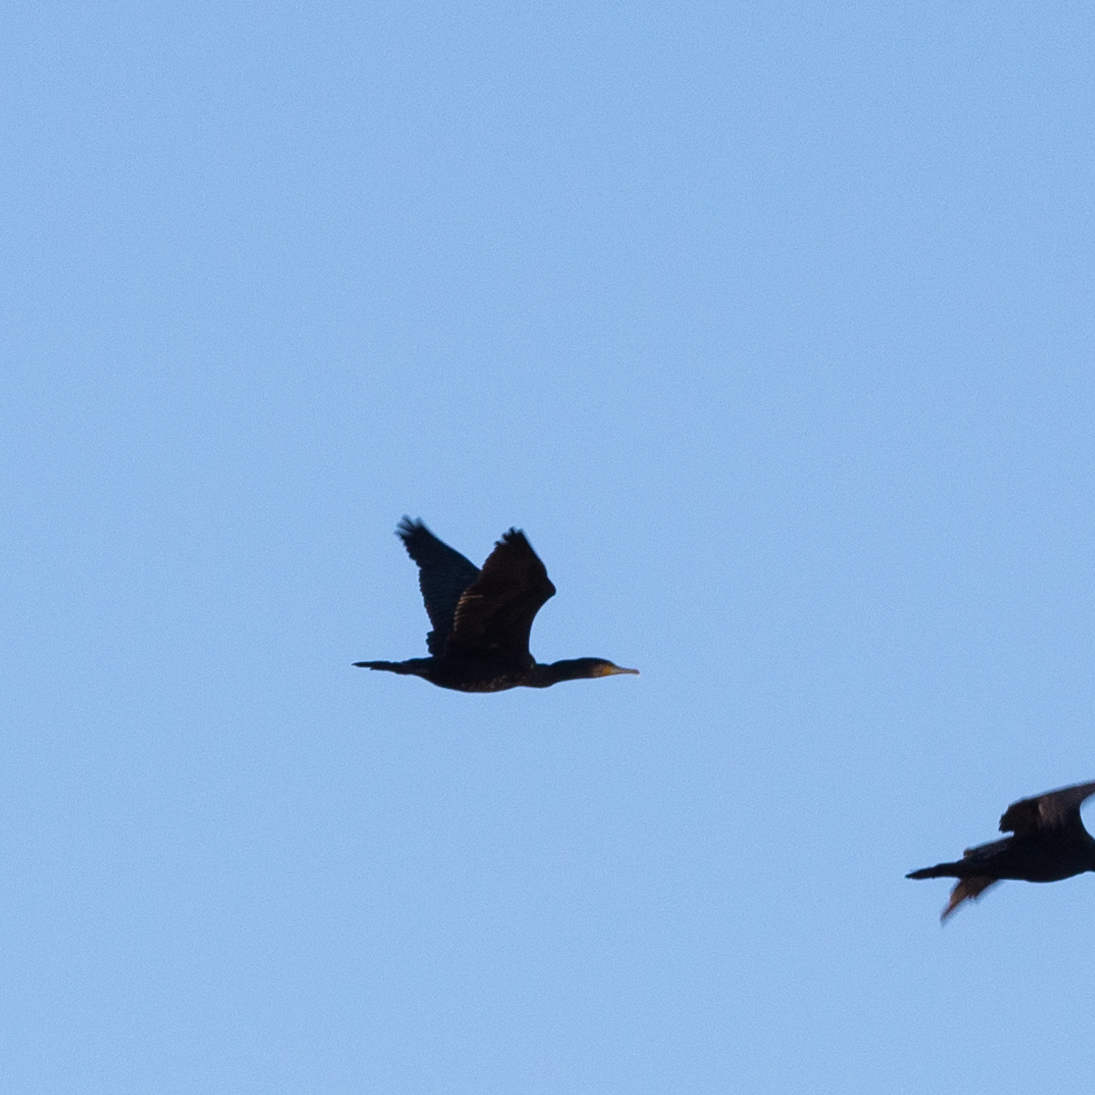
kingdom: Animalia
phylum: Chordata
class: Aves
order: Suliformes
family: Phalacrocoracidae
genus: Phalacrocorax
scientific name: Phalacrocorax carbo
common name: Great cormorant
